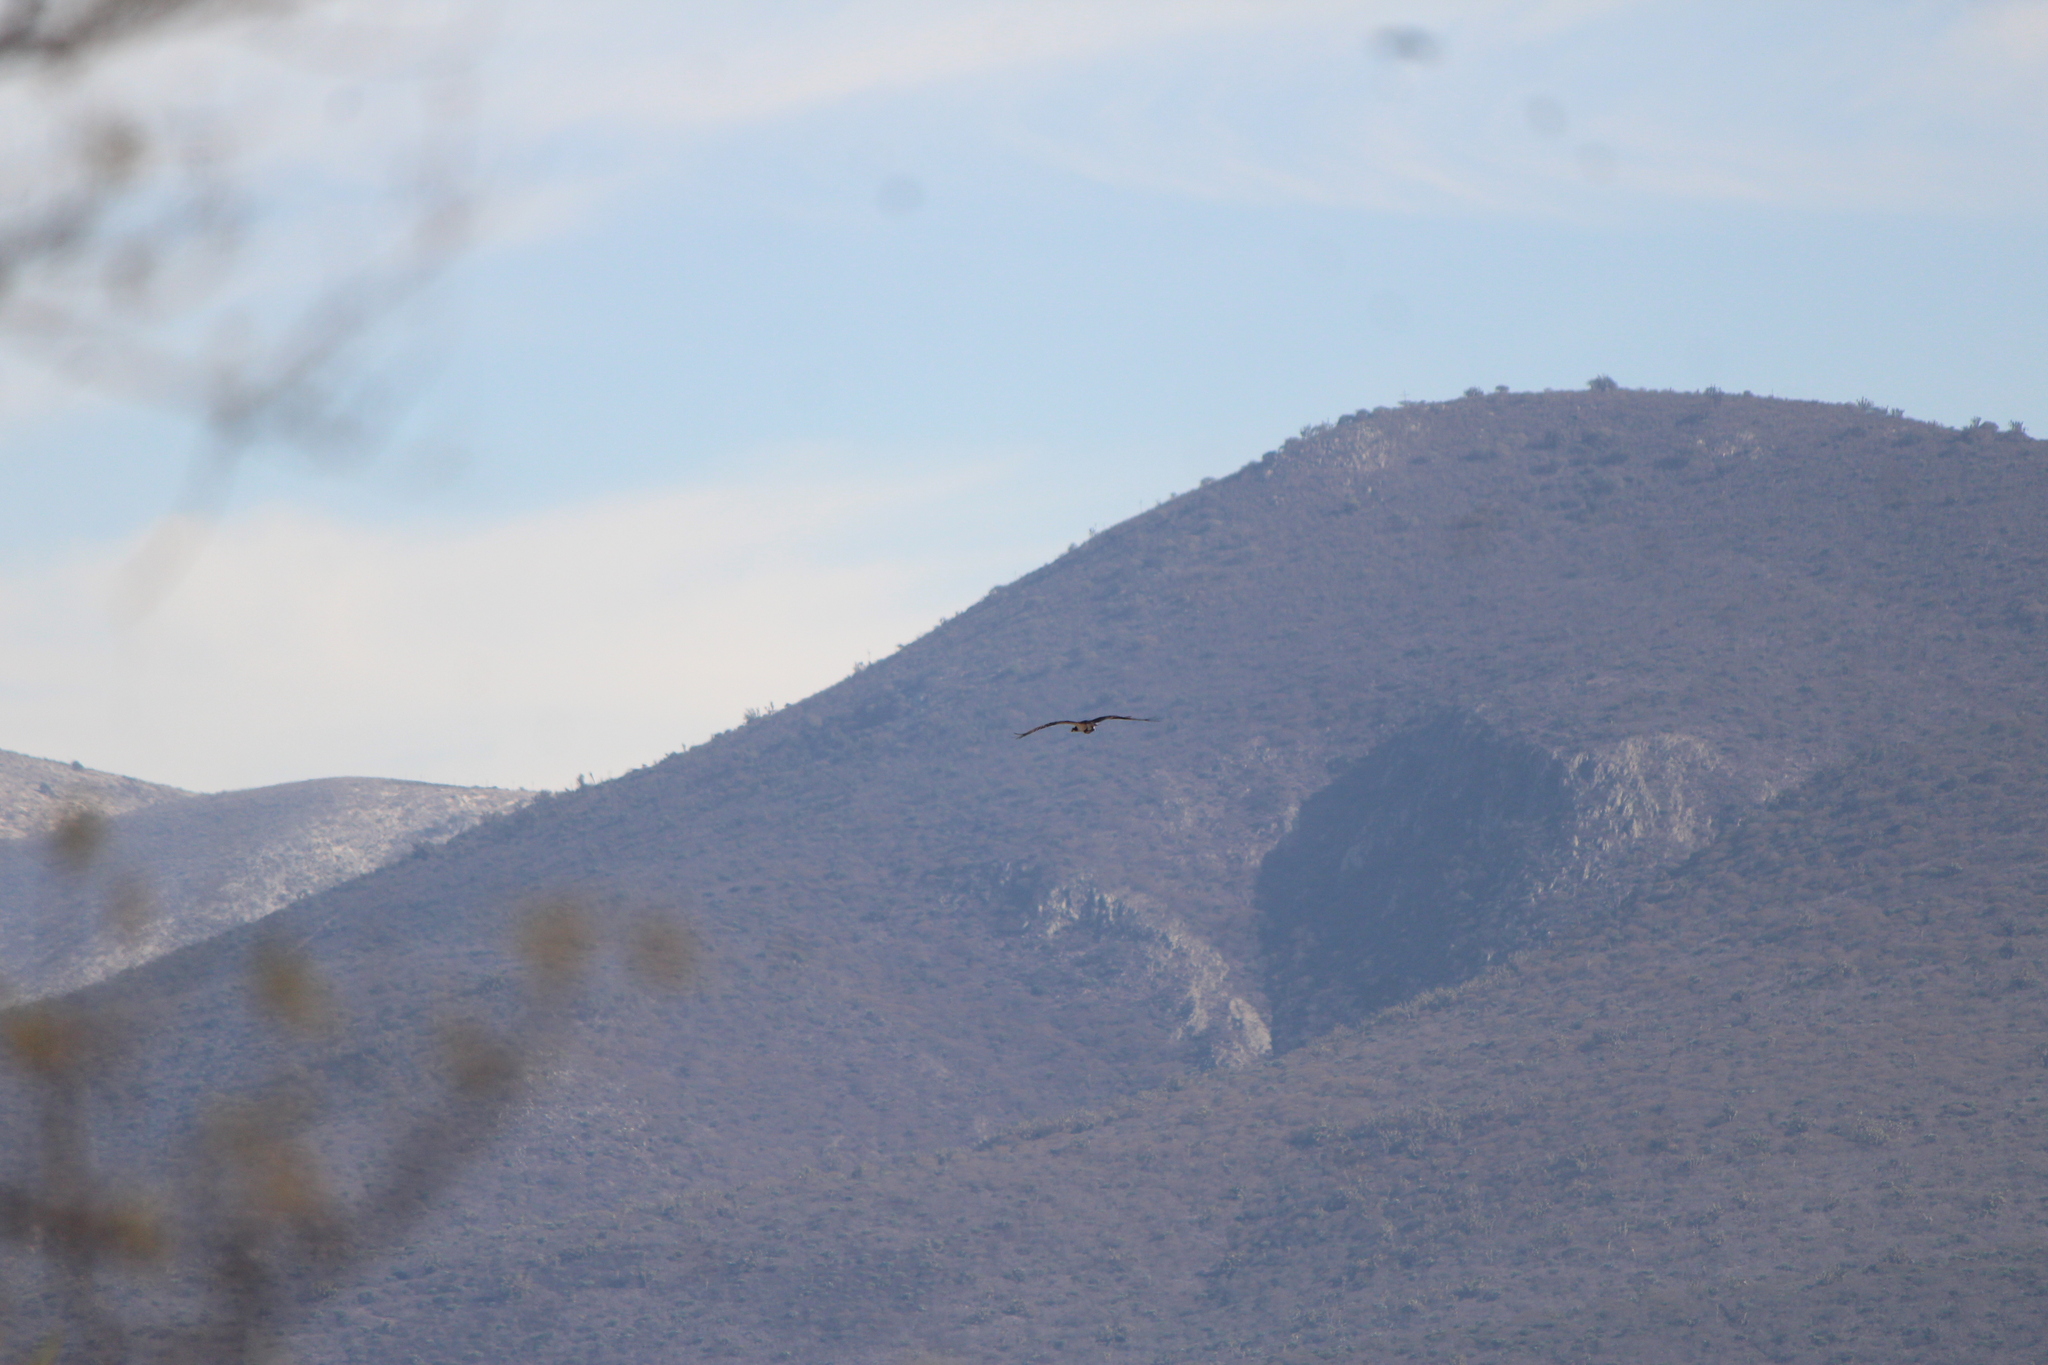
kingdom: Animalia
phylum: Chordata
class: Aves
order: Accipitriformes
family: Pandionidae
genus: Pandion
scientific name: Pandion haliaetus
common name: Osprey
